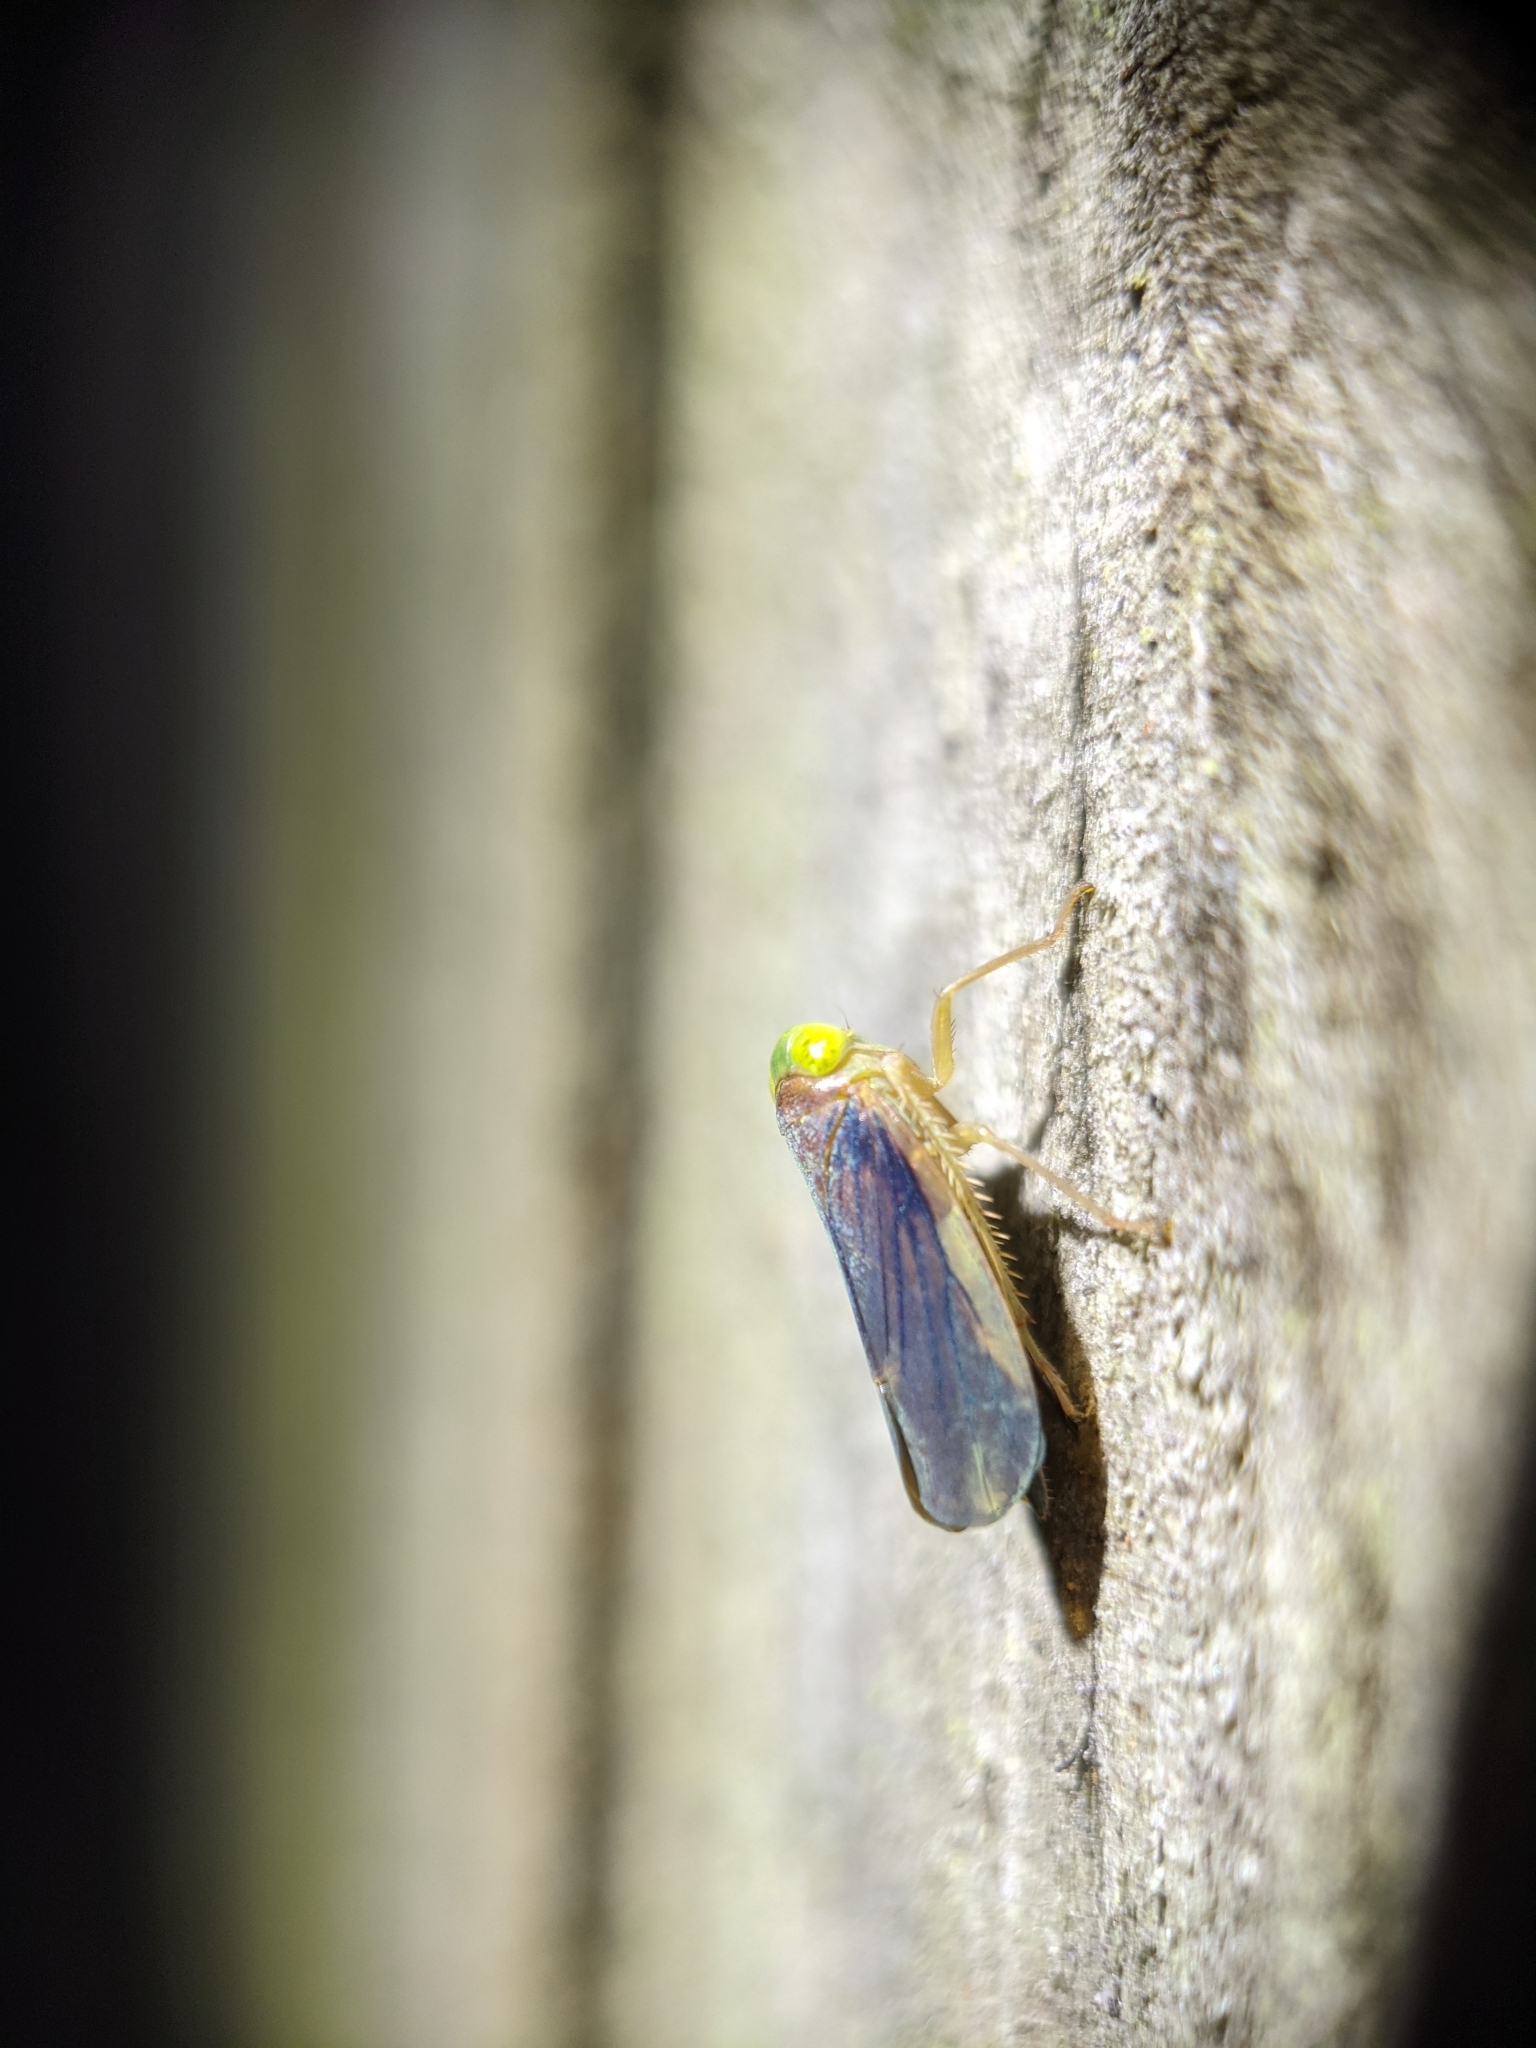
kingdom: Animalia
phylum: Arthropoda
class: Insecta
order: Hemiptera
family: Cicadellidae
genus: Jikradia
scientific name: Jikradia melanotus
